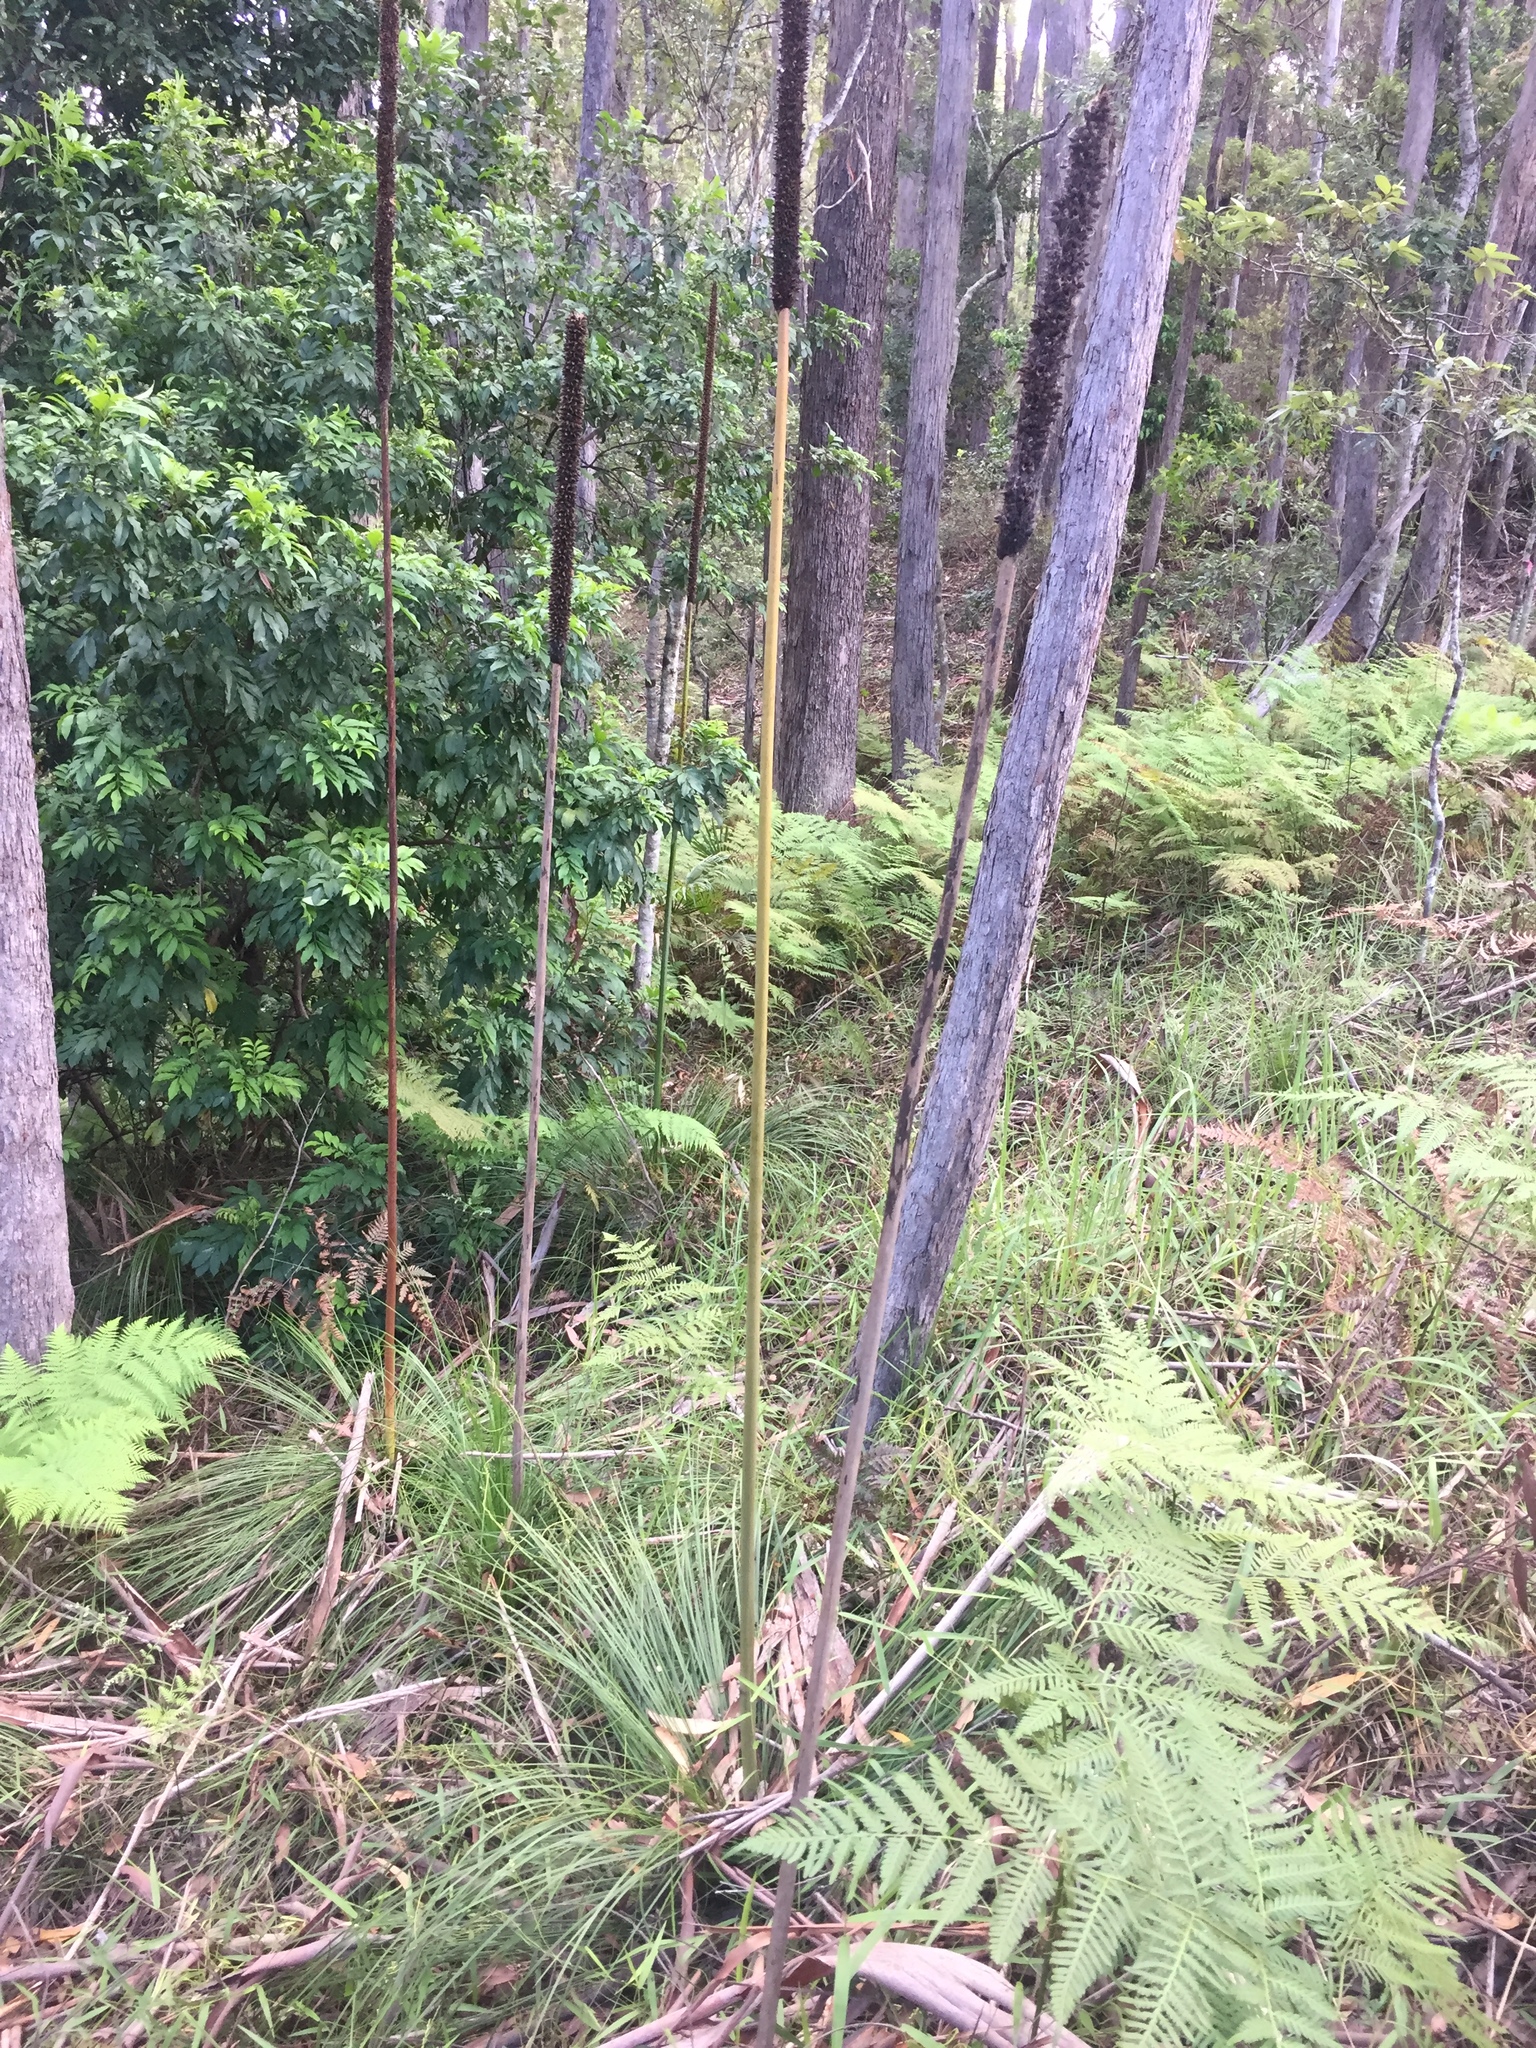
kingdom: Plantae
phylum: Tracheophyta
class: Liliopsida
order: Asparagales
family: Asphodelaceae
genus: Xanthorrhoea
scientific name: Xanthorrhoea latifolia
